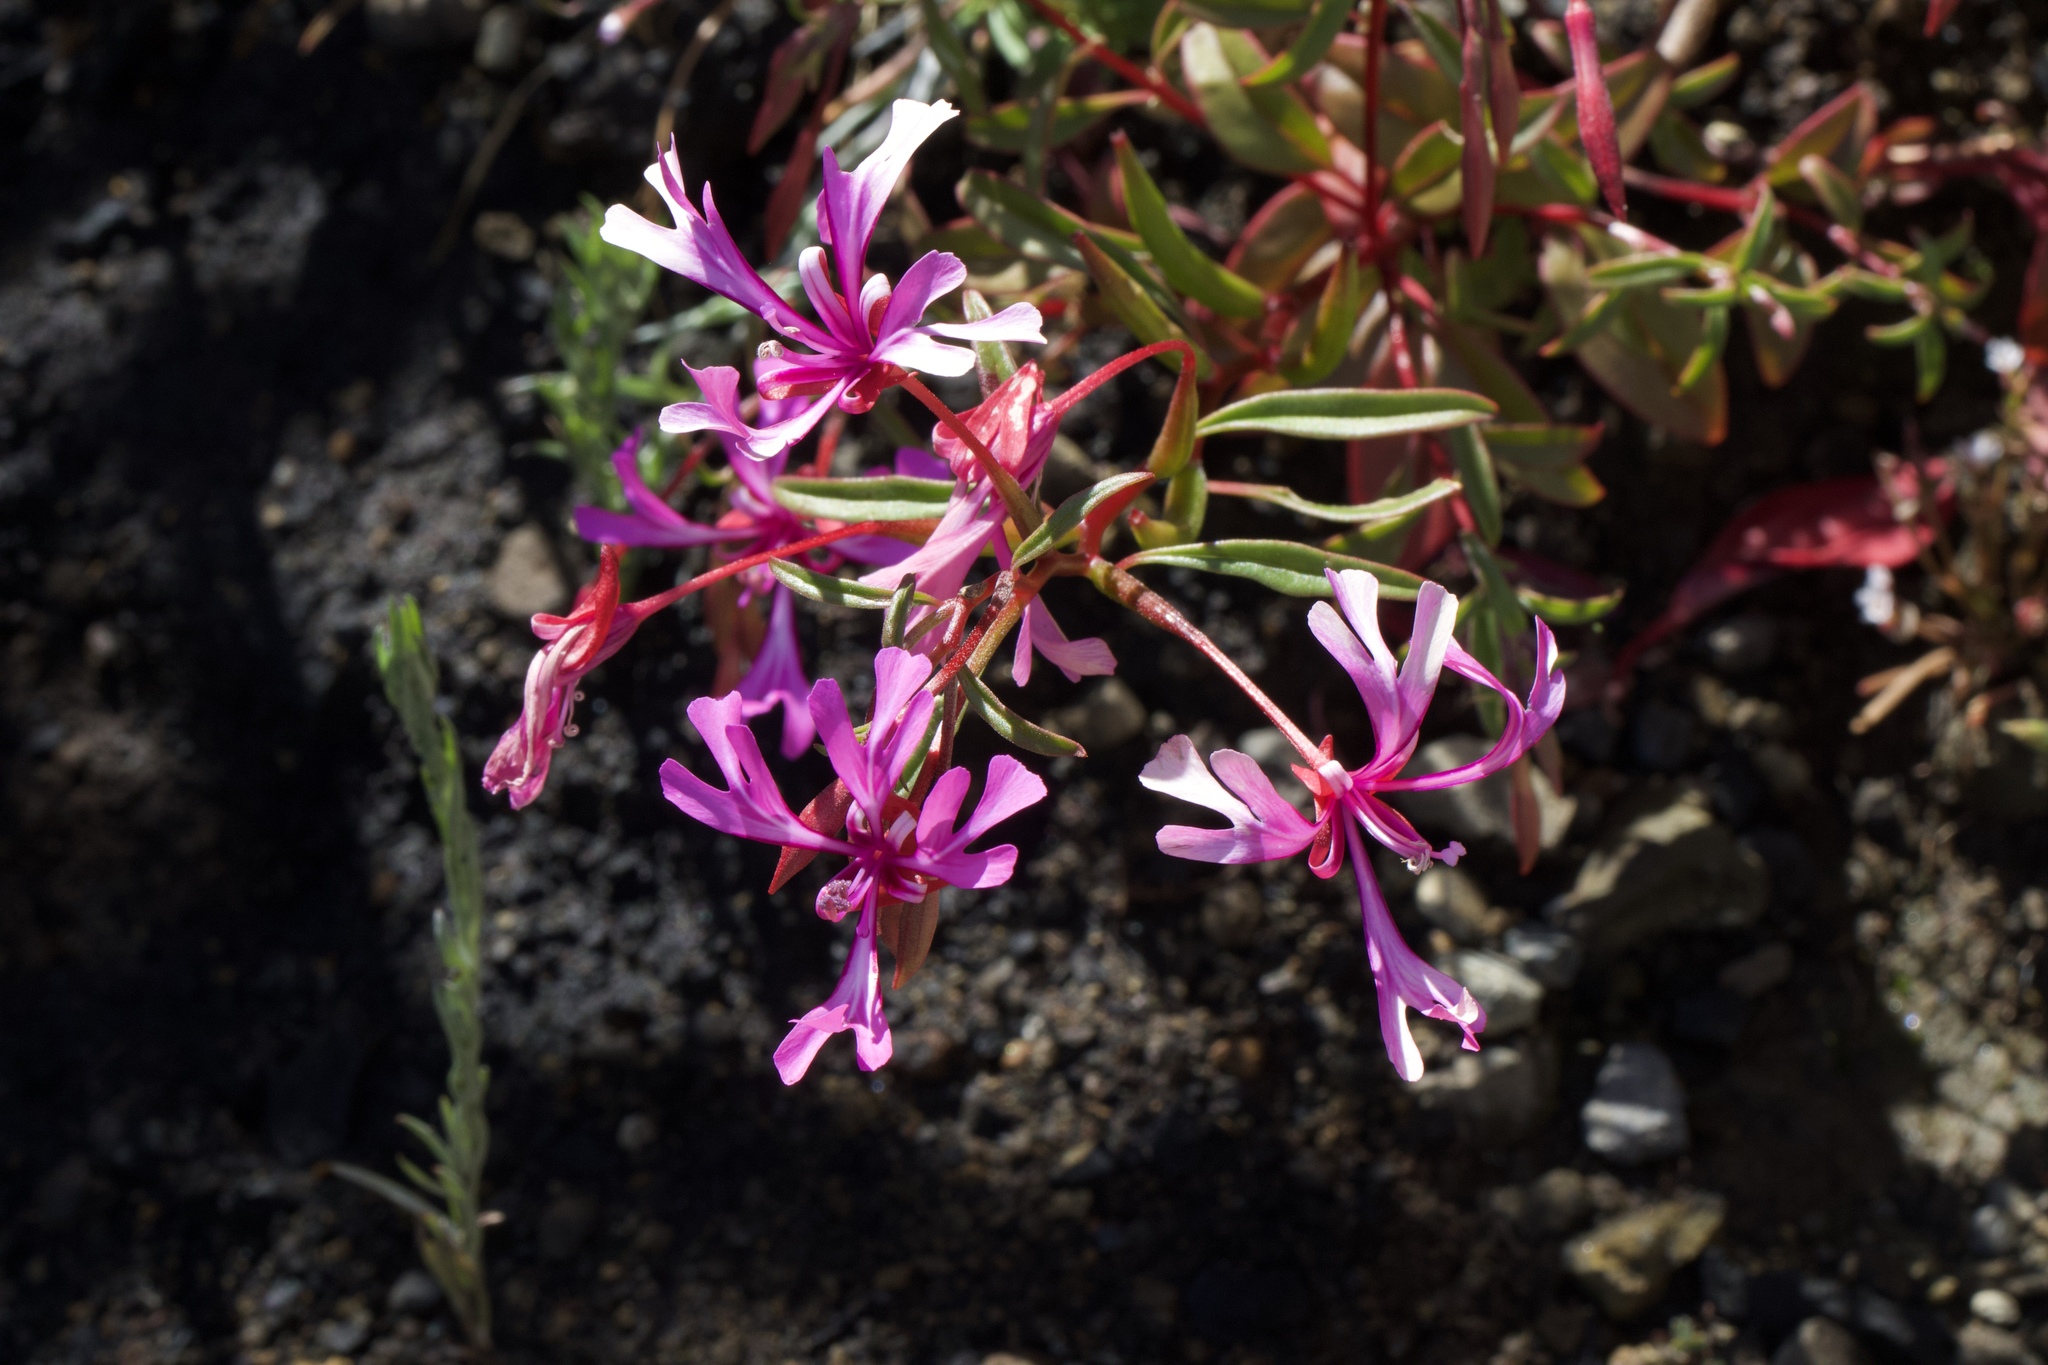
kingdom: Plantae
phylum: Tracheophyta
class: Magnoliopsida
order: Myrtales
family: Onagraceae
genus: Clarkia
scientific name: Clarkia concinna
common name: Red-ribbons
